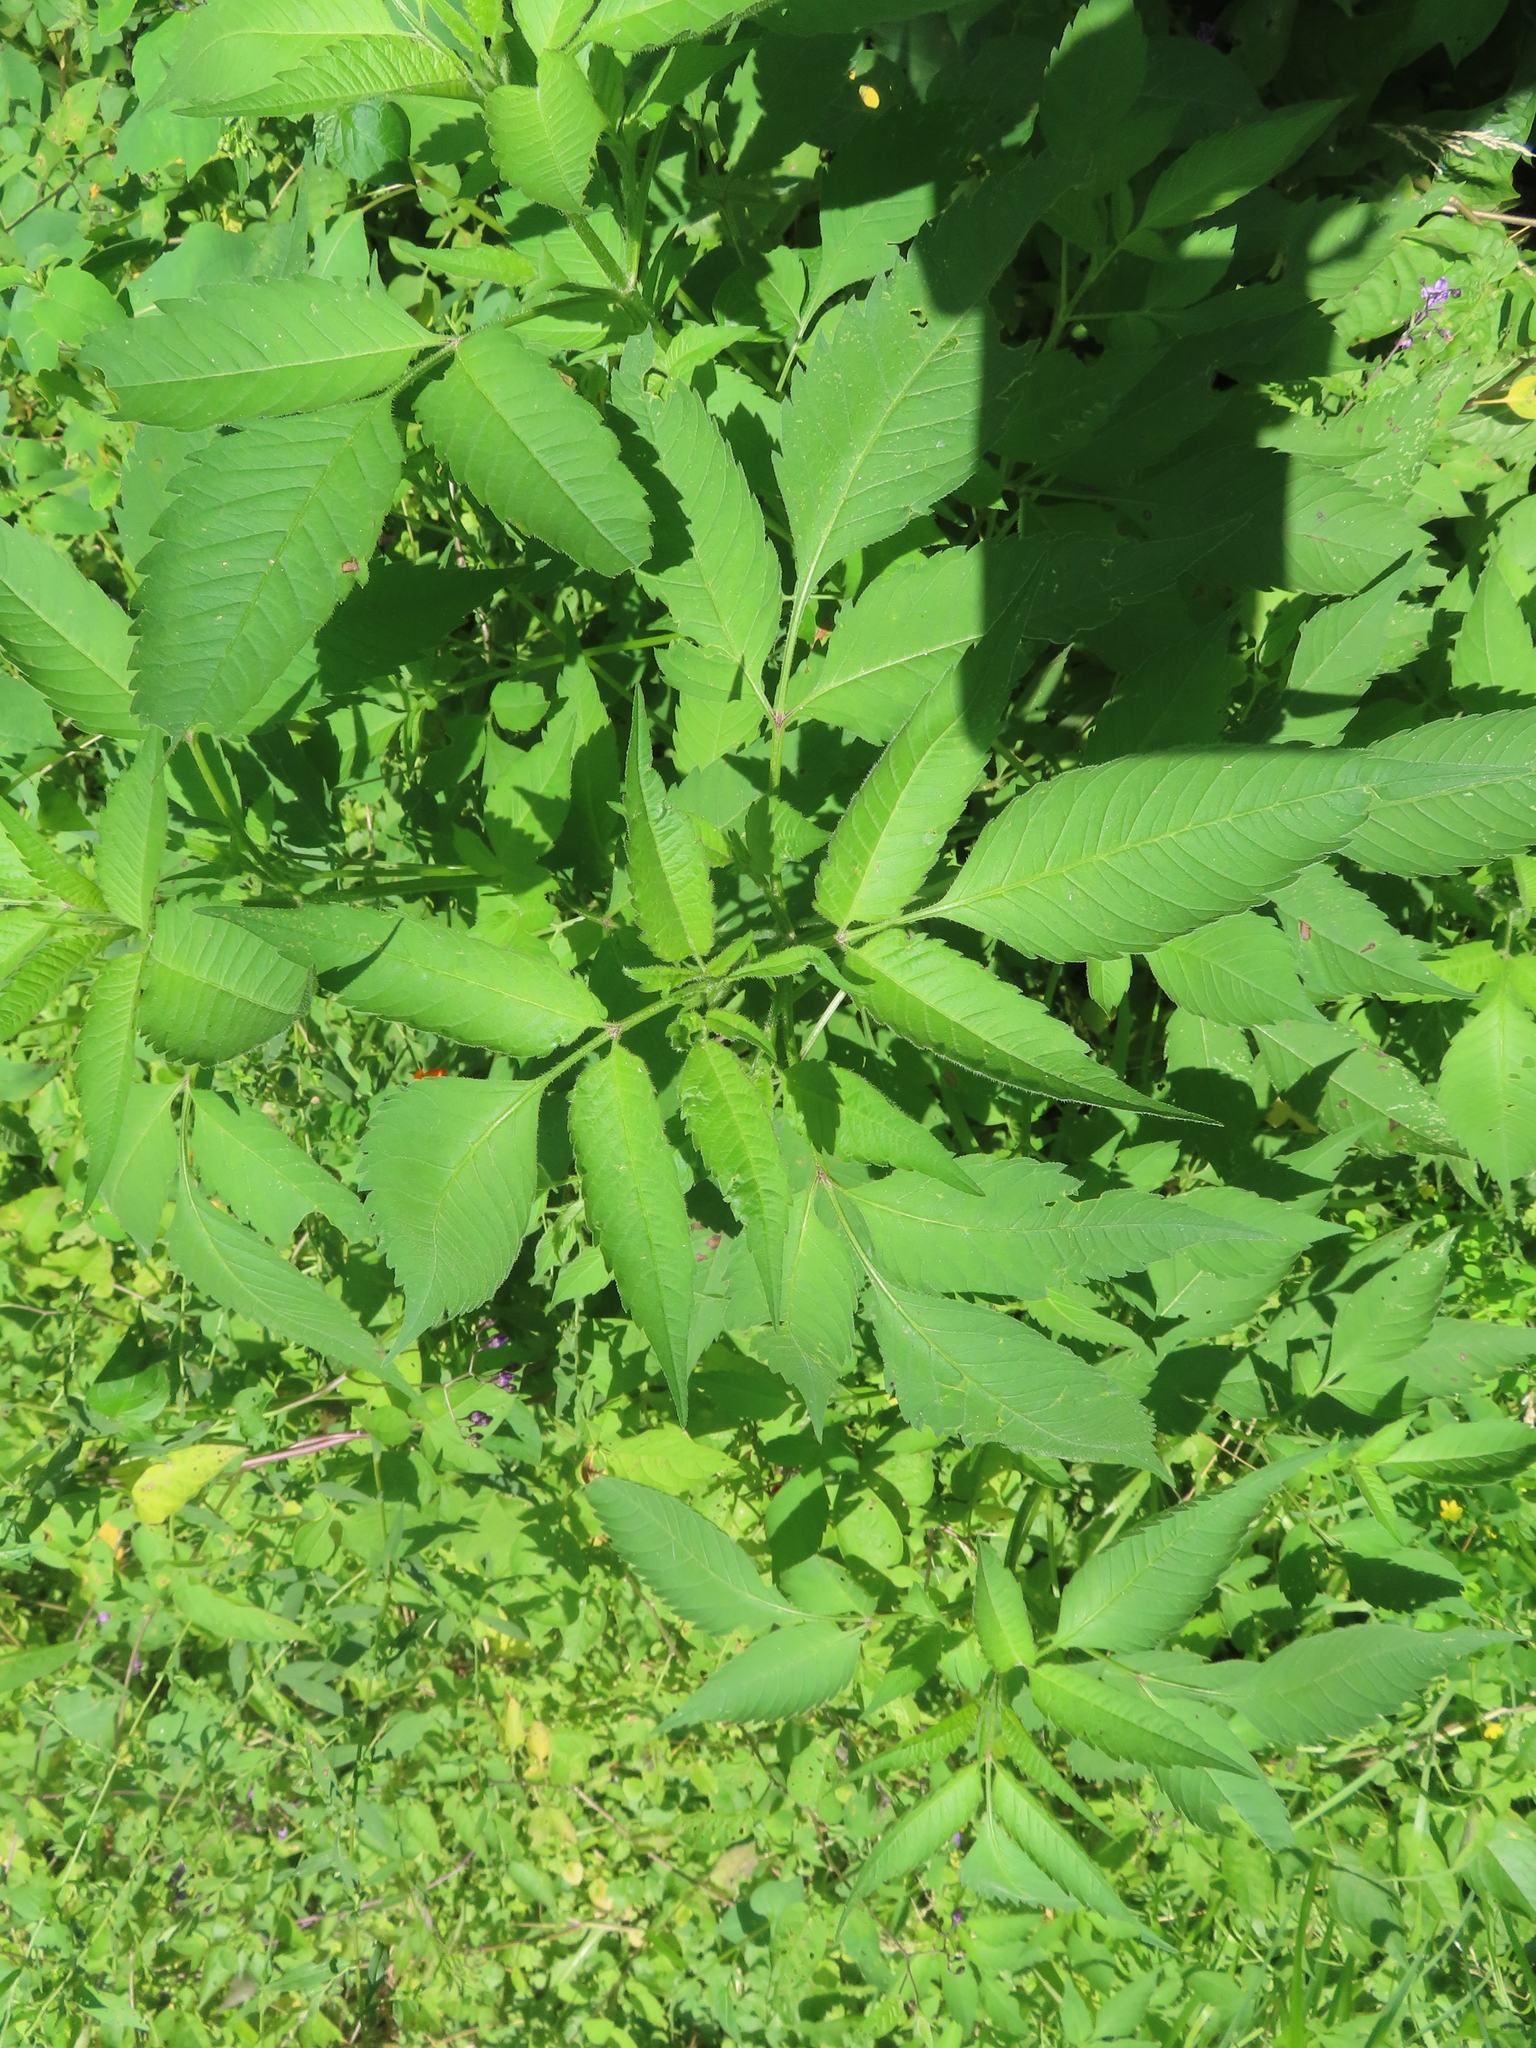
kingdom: Plantae
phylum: Tracheophyta
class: Magnoliopsida
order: Asterales
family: Asteraceae
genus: Bidens
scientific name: Bidens frondosa
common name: Beggarticks
